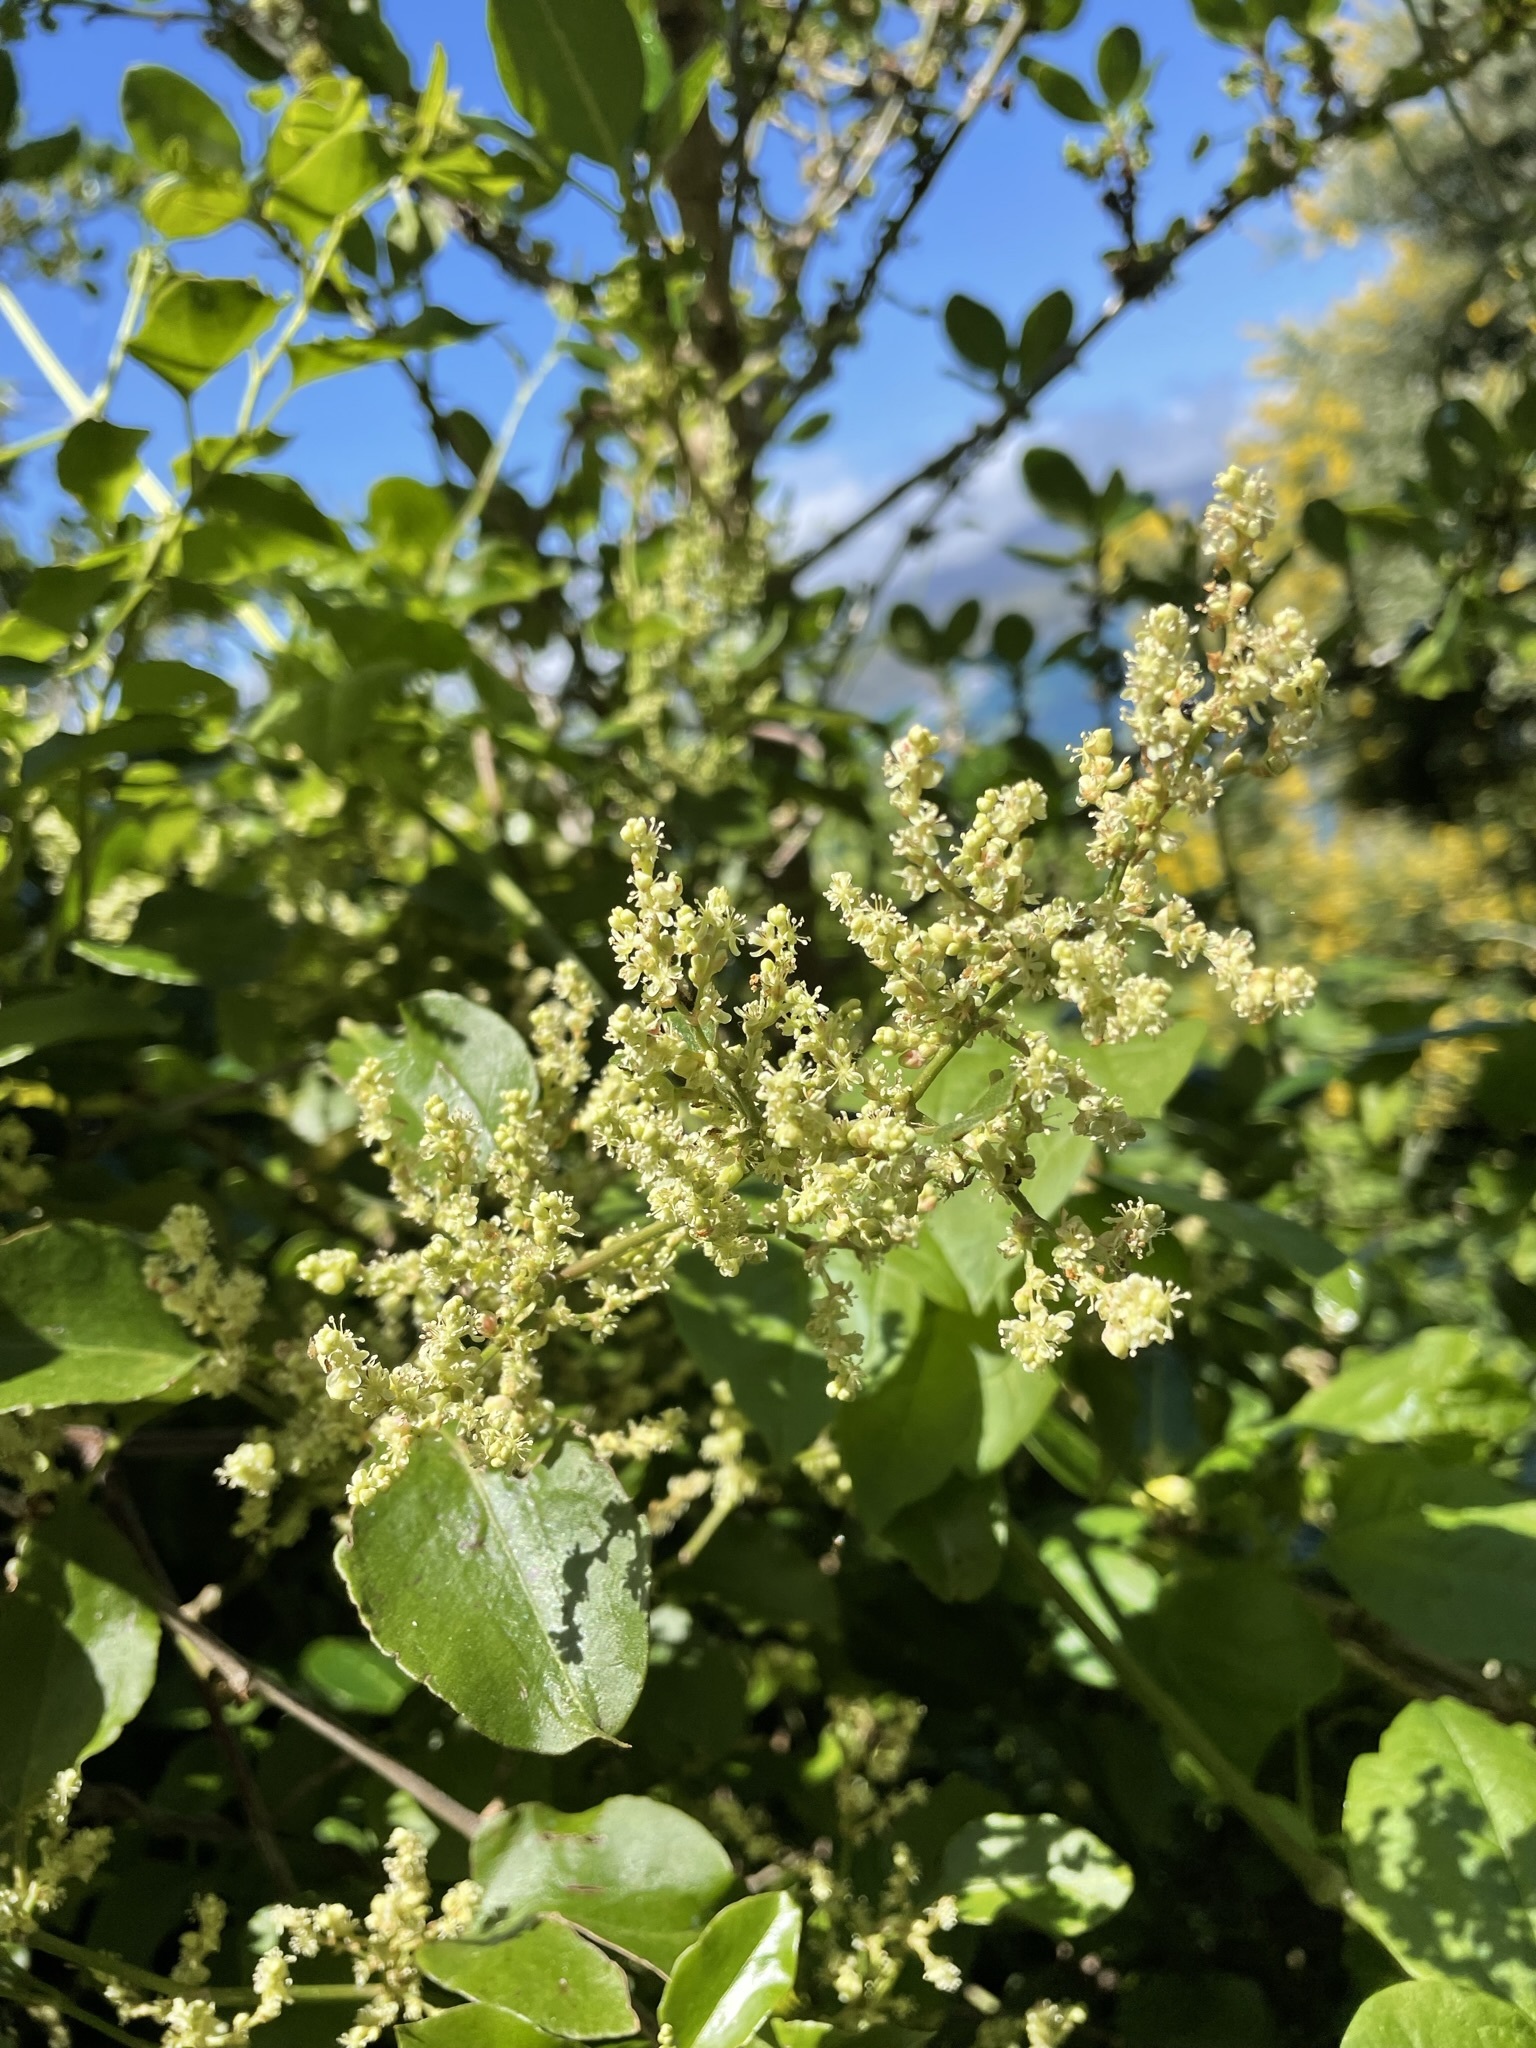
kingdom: Plantae
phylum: Tracheophyta
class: Magnoliopsida
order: Caryophyllales
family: Polygonaceae
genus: Muehlenbeckia
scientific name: Muehlenbeckia australis
